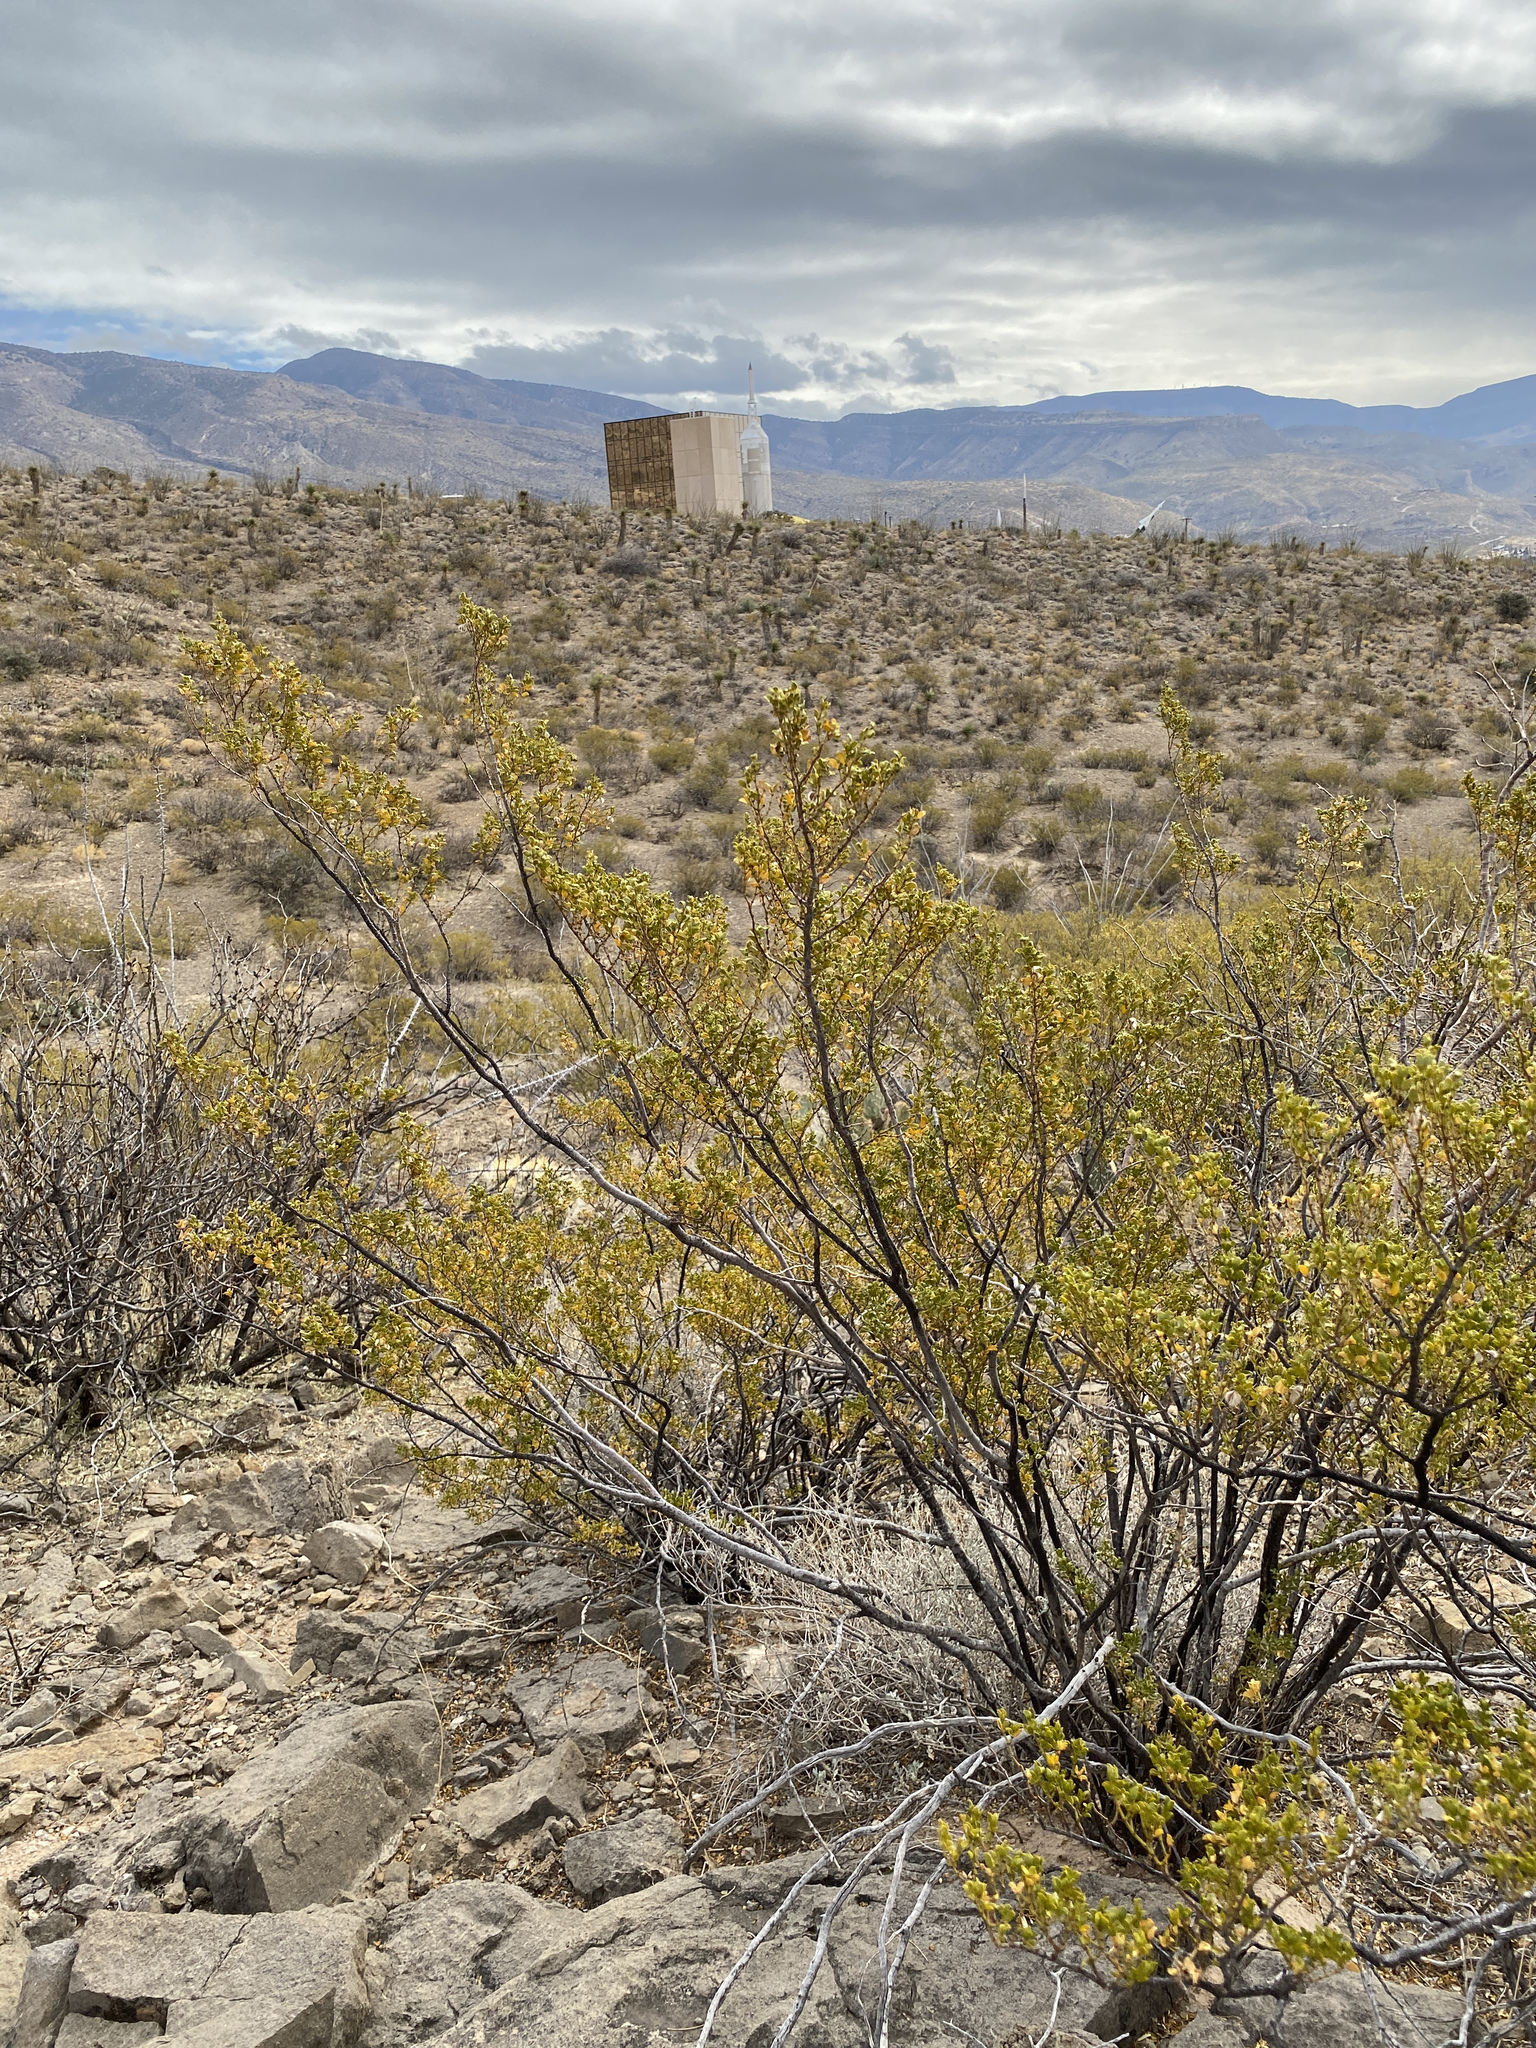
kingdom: Plantae
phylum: Tracheophyta
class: Magnoliopsida
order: Zygophyllales
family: Zygophyllaceae
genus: Larrea
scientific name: Larrea tridentata
